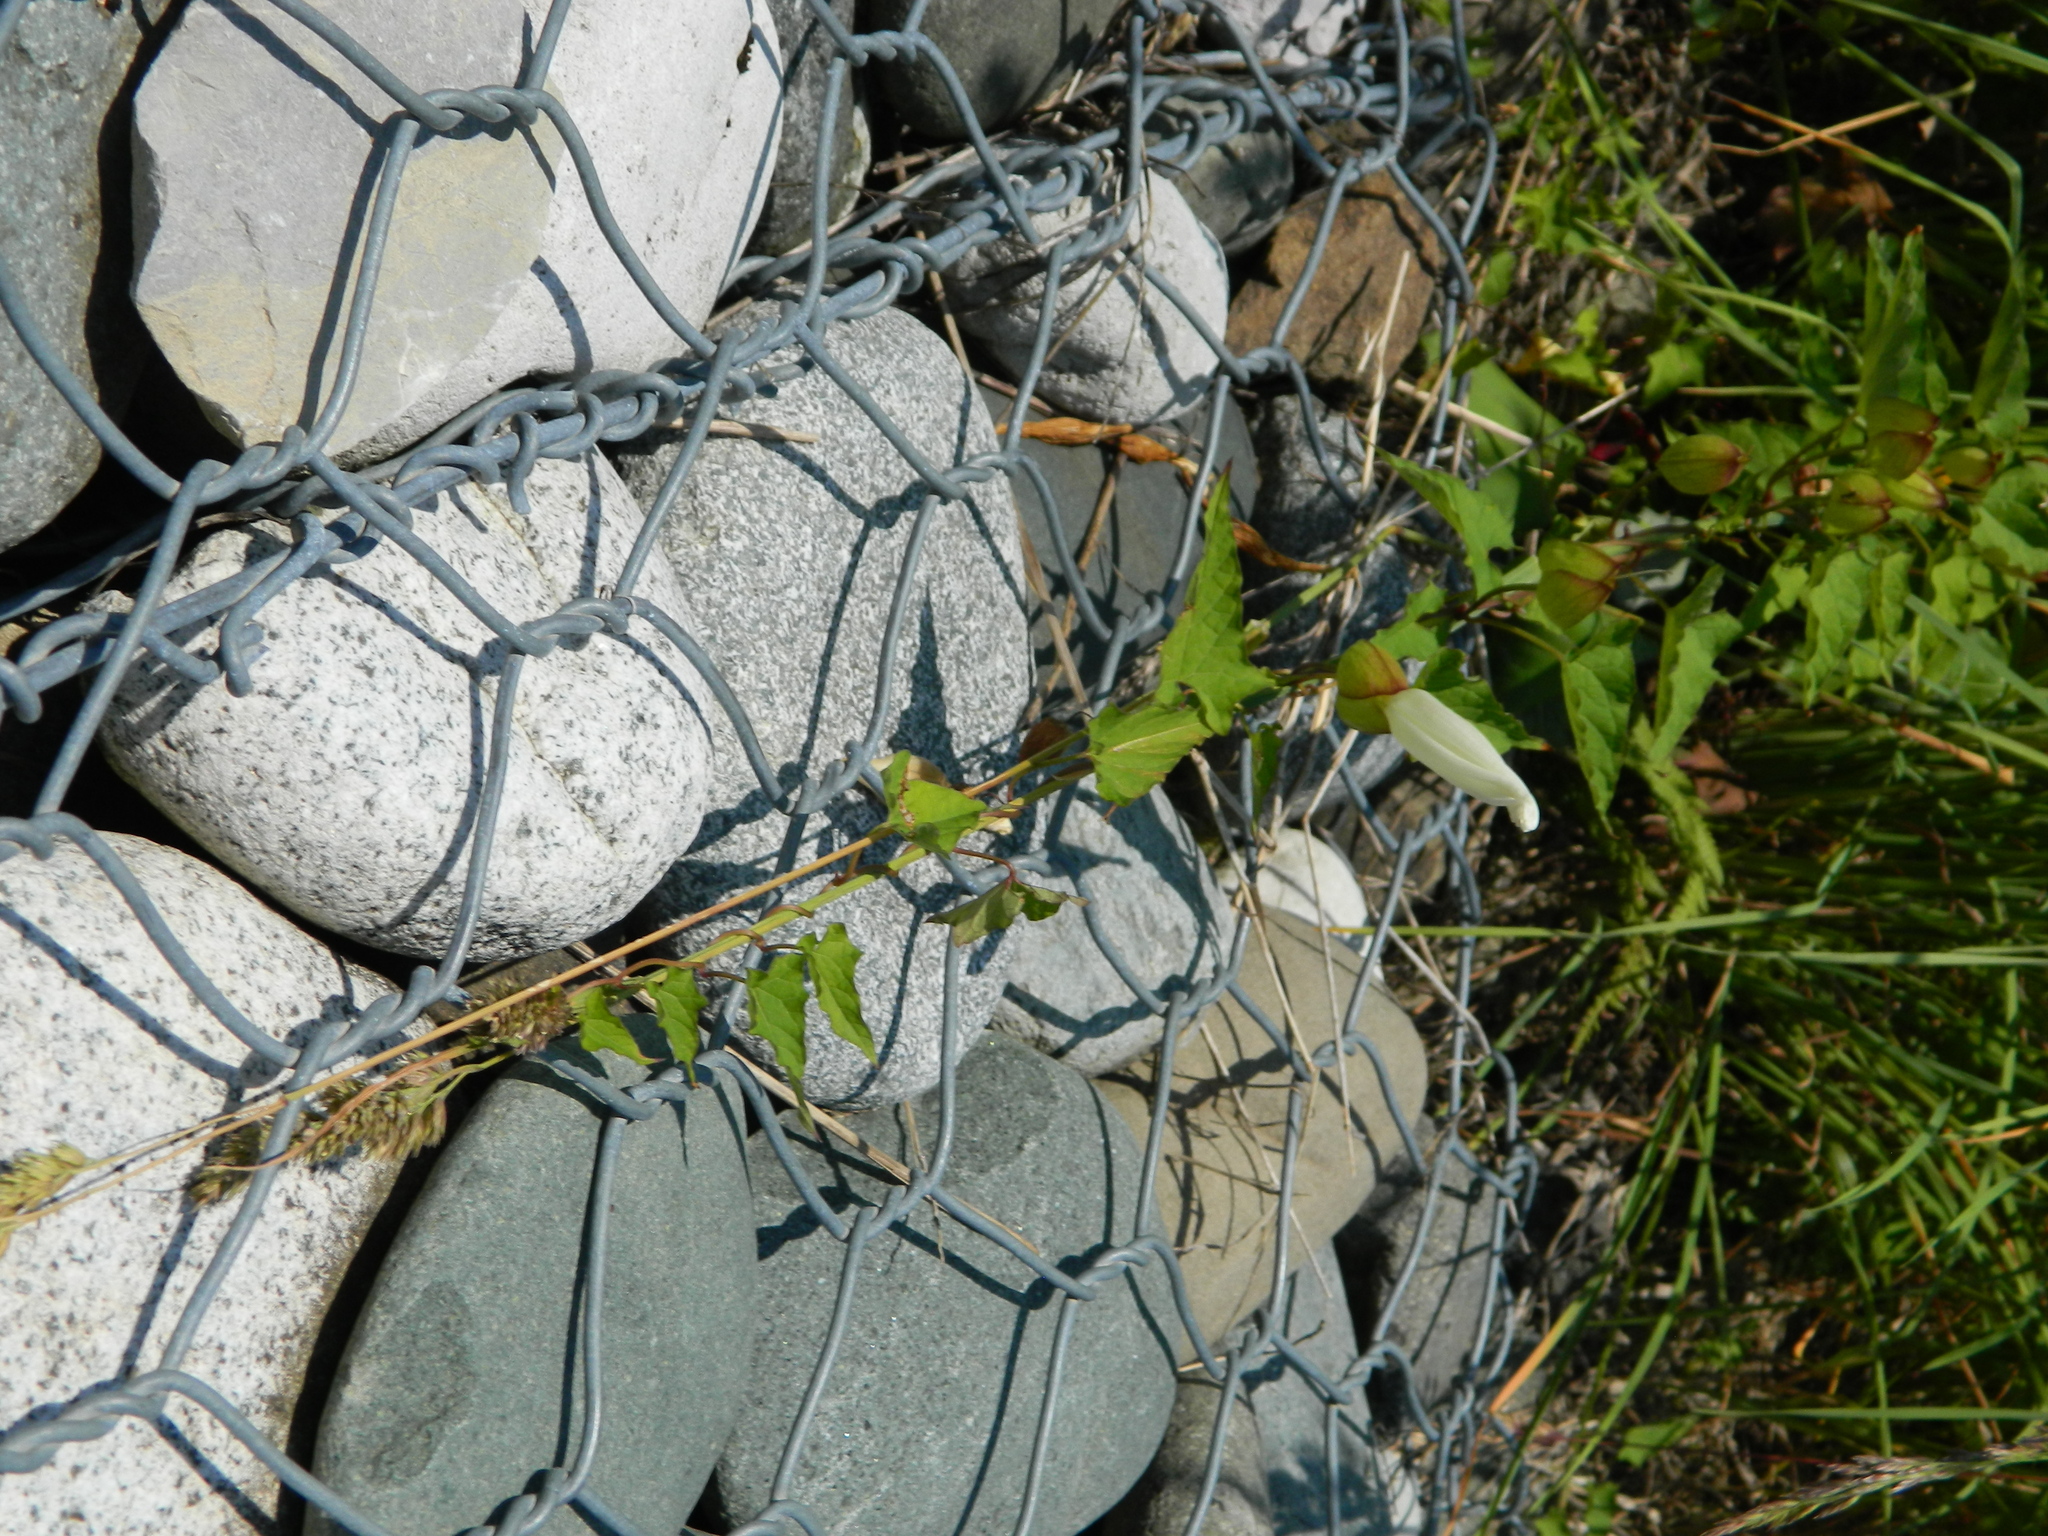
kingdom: Plantae
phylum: Tracheophyta
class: Magnoliopsida
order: Solanales
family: Convolvulaceae
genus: Calystegia
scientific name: Calystegia silvatica
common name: Large bindweed
